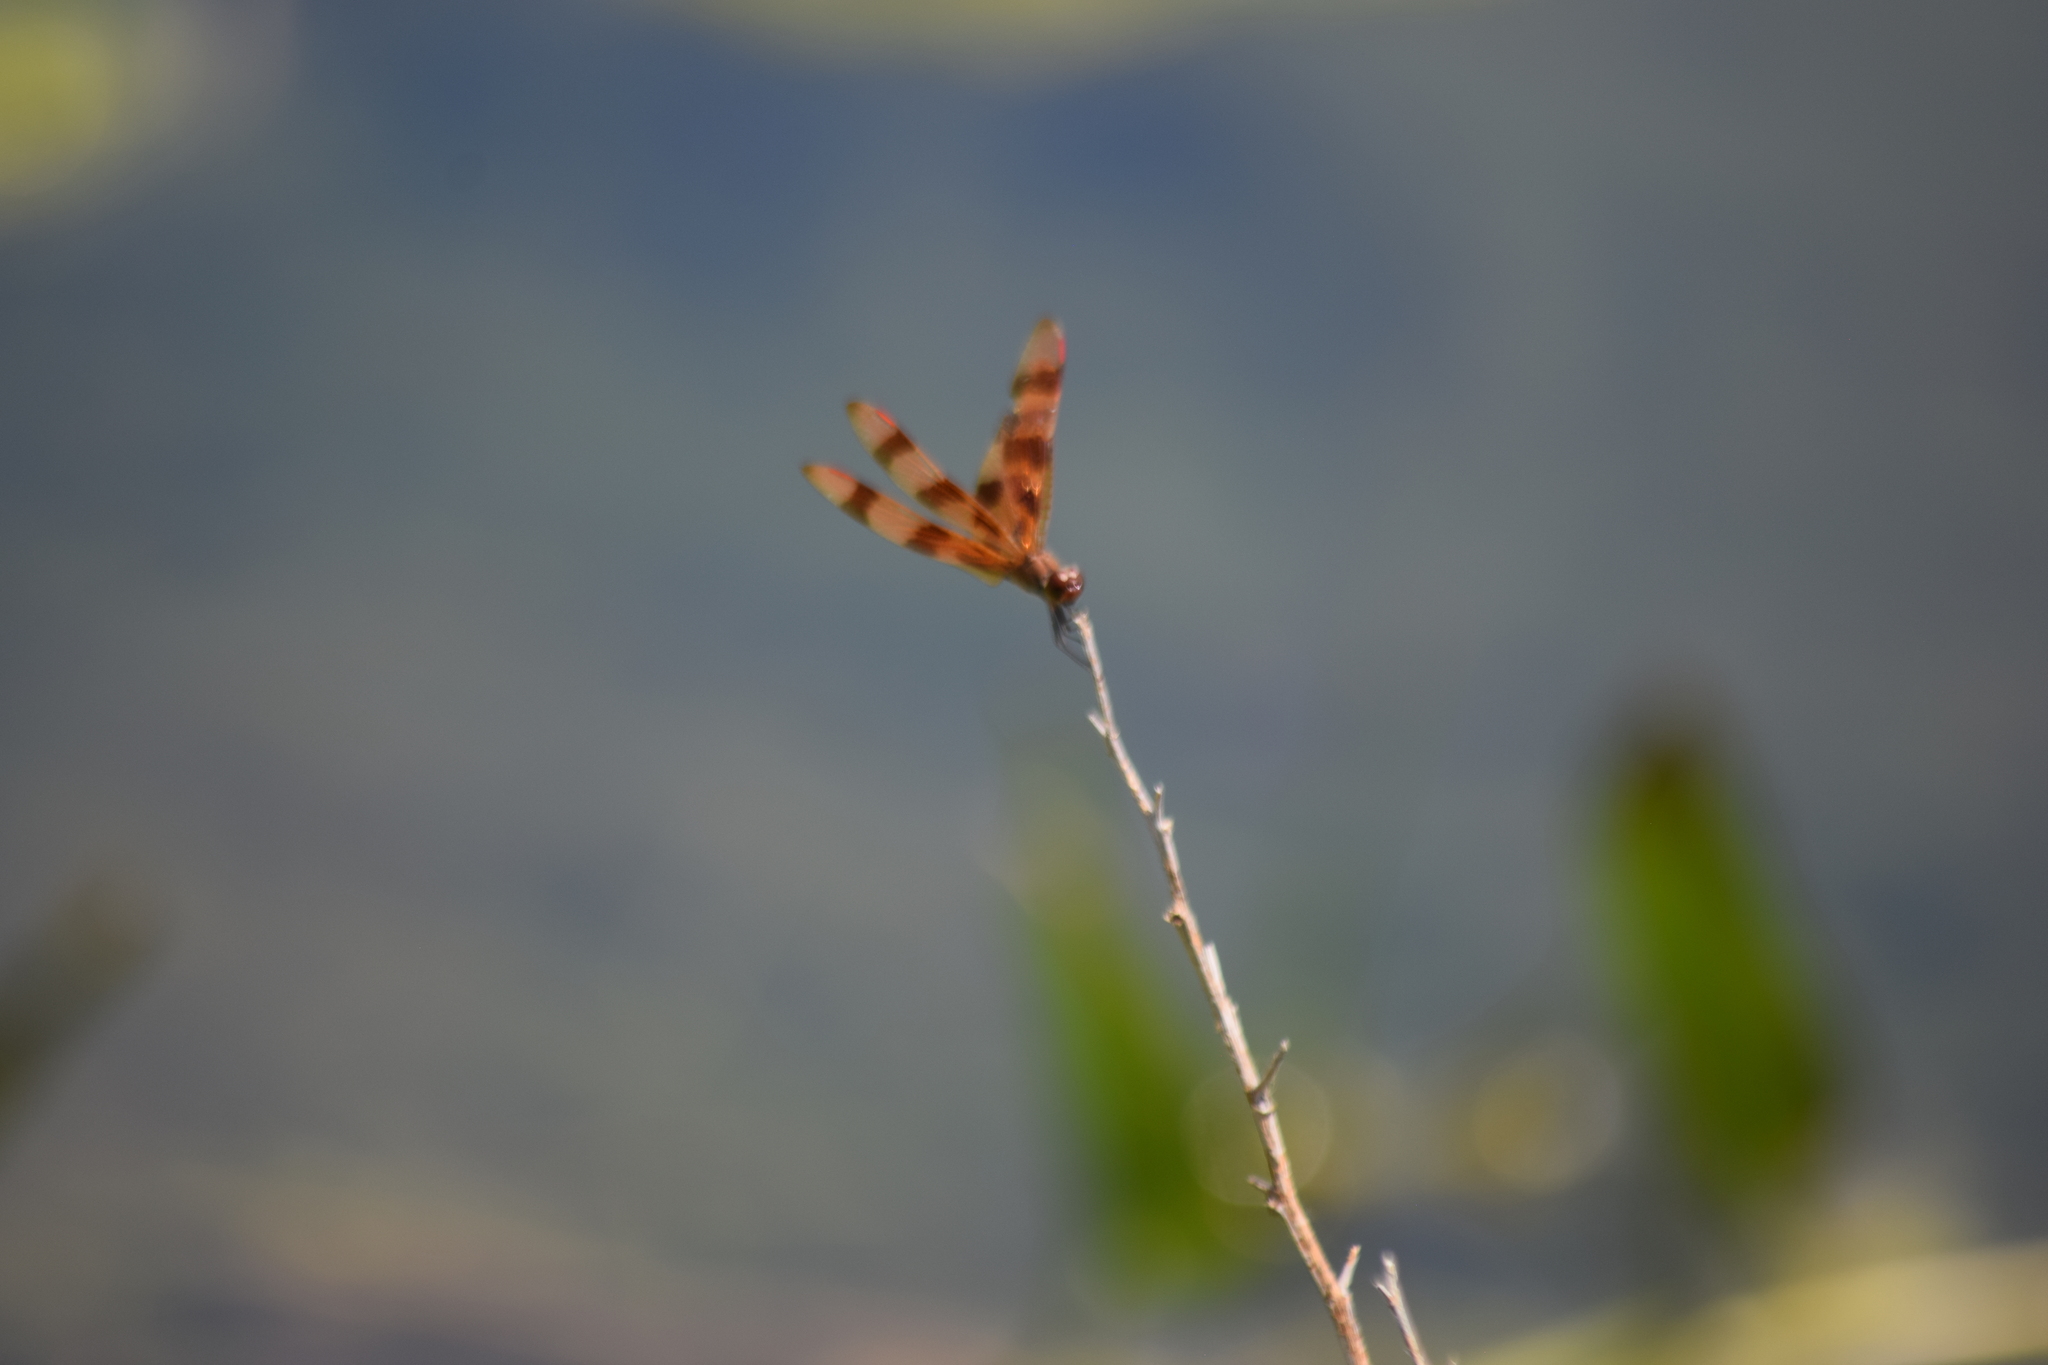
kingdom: Animalia
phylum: Arthropoda
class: Insecta
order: Odonata
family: Libellulidae
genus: Celithemis
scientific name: Celithemis eponina
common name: Halloween pennant
